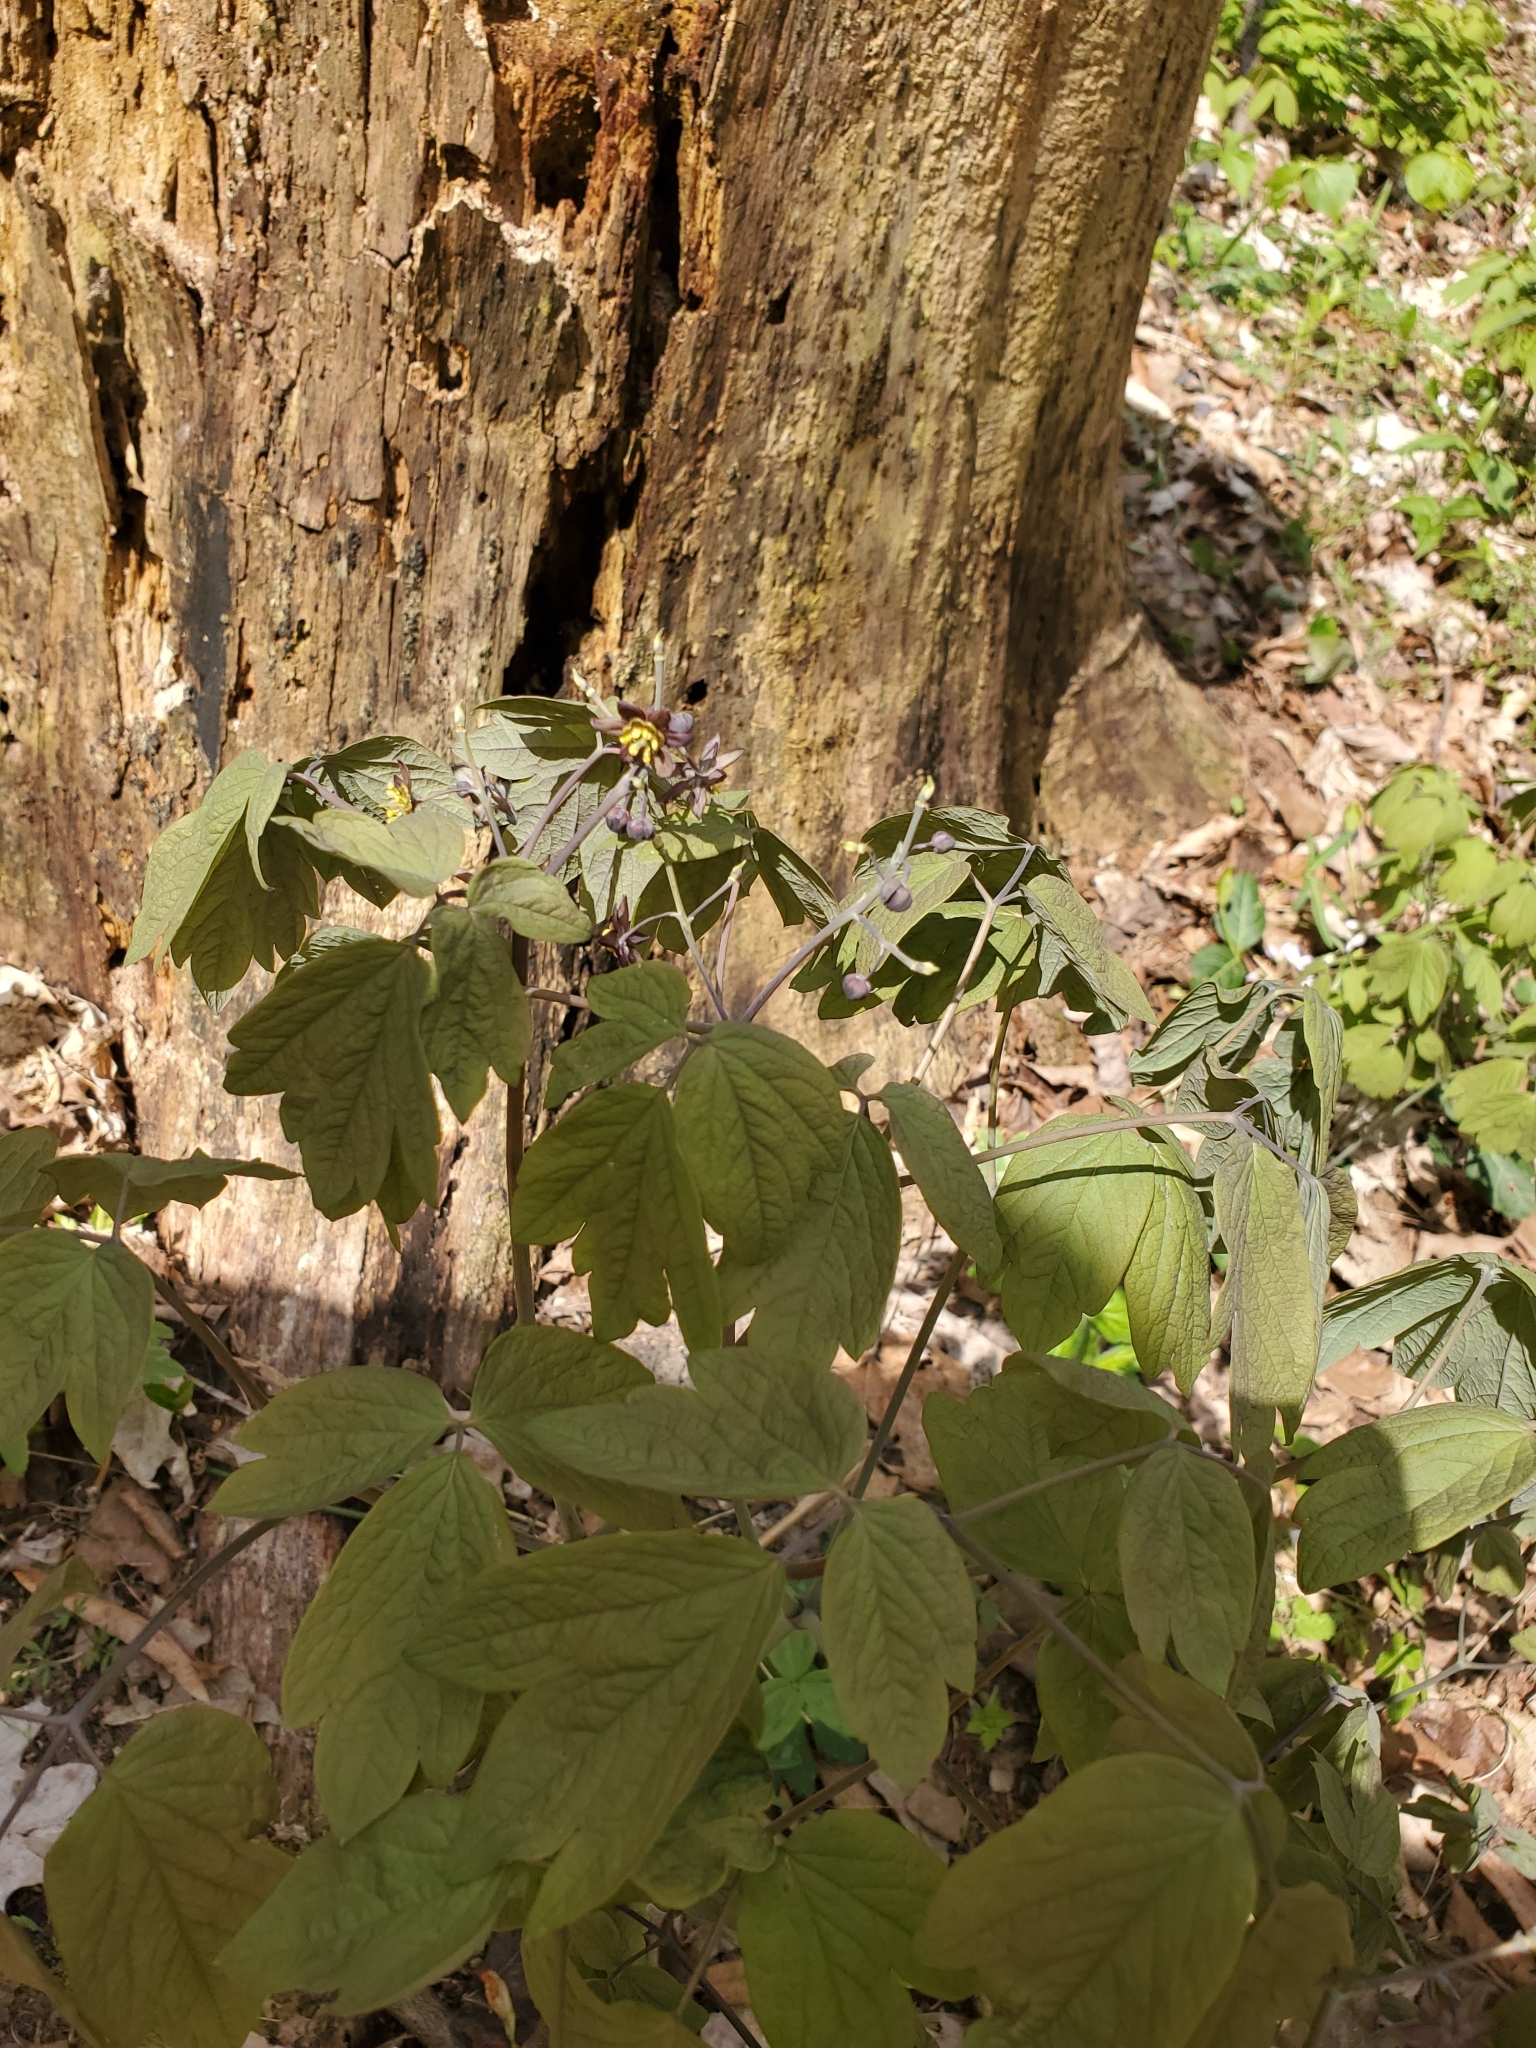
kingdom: Plantae
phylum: Tracheophyta
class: Magnoliopsida
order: Ranunculales
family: Berberidaceae
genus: Caulophyllum
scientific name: Caulophyllum thalictroides
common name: Blue cohosh
